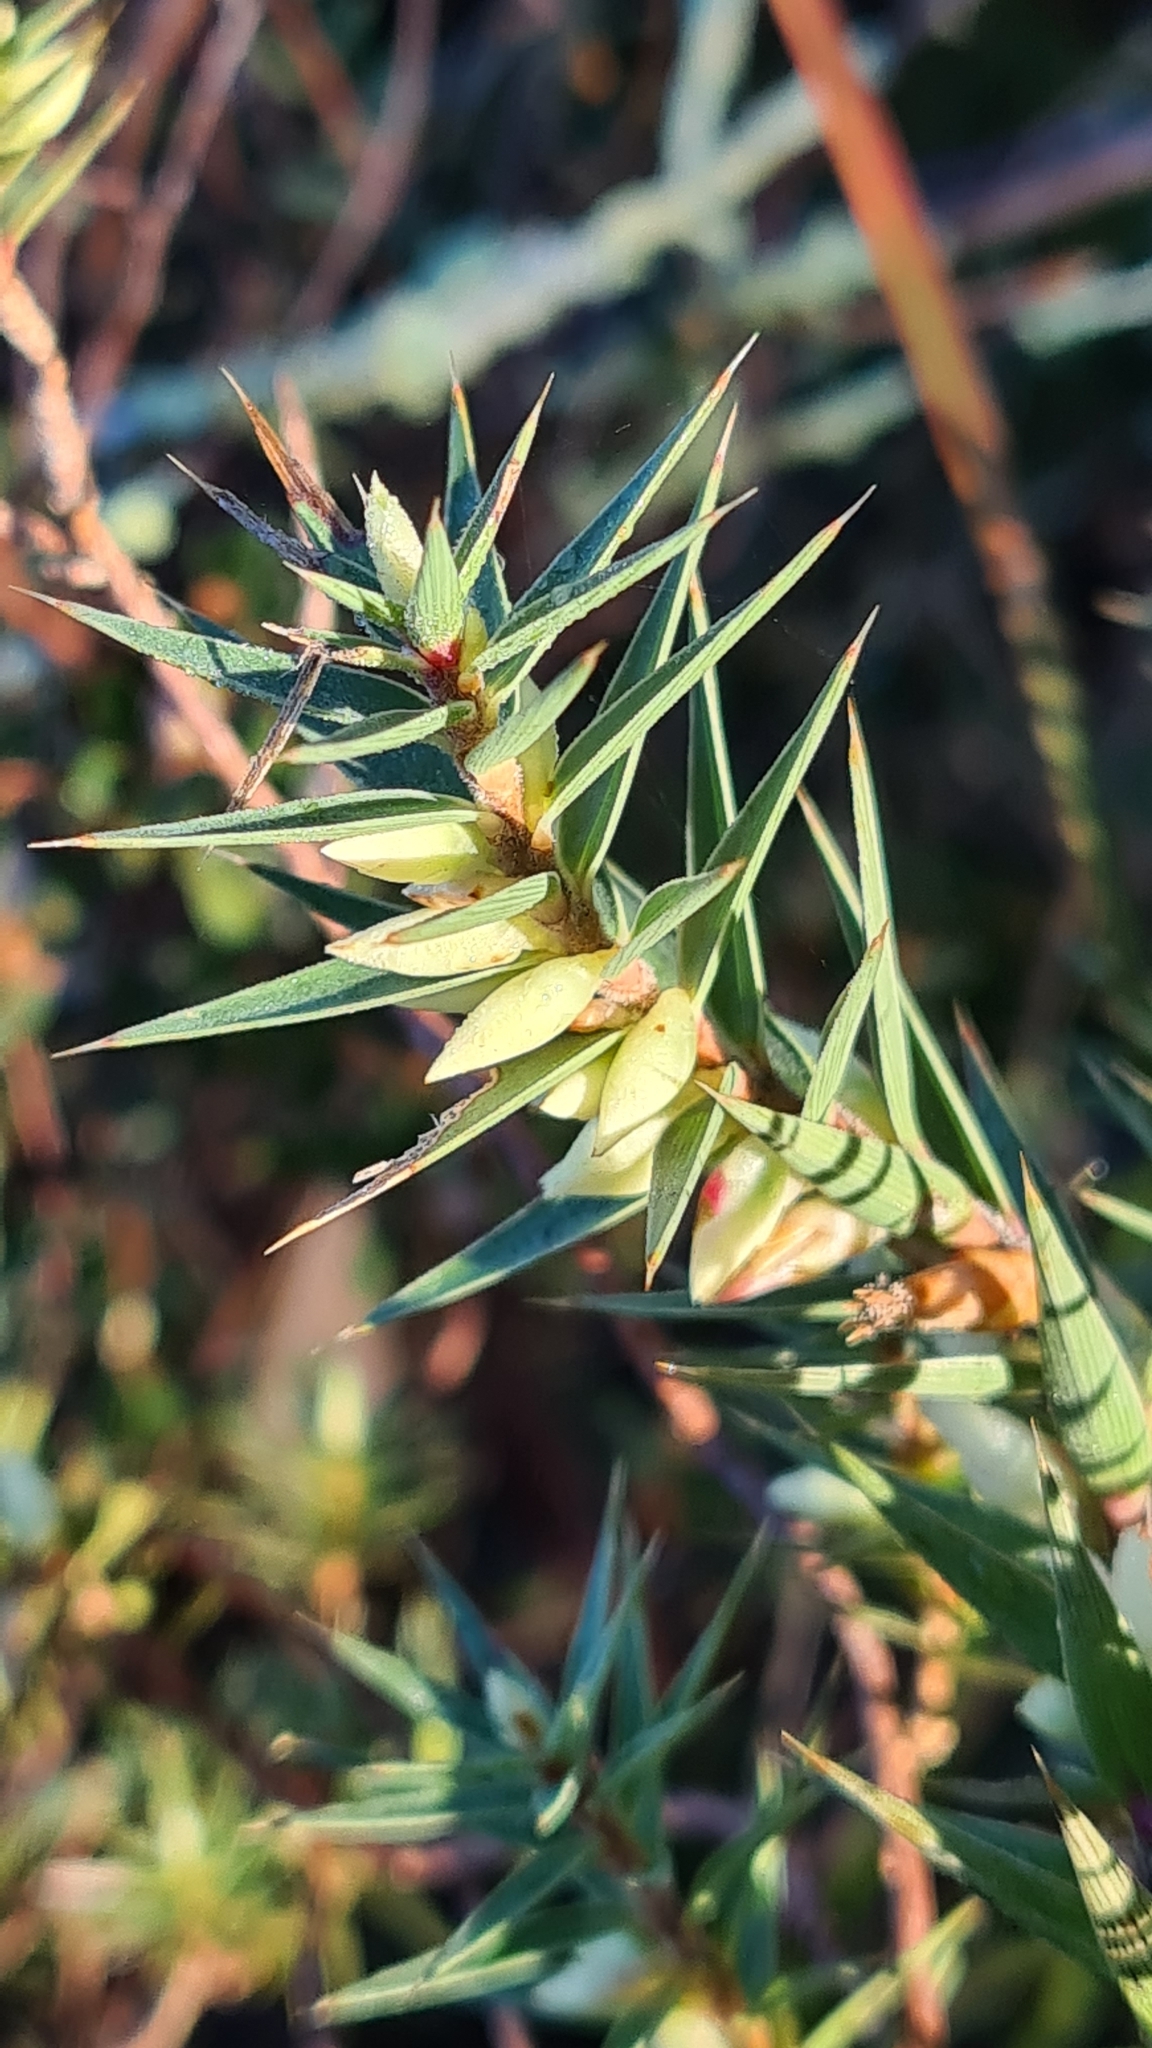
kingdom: Plantae
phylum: Tracheophyta
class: Magnoliopsida
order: Ericales
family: Ericaceae
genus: Melichrus
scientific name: Melichrus urceolatus
